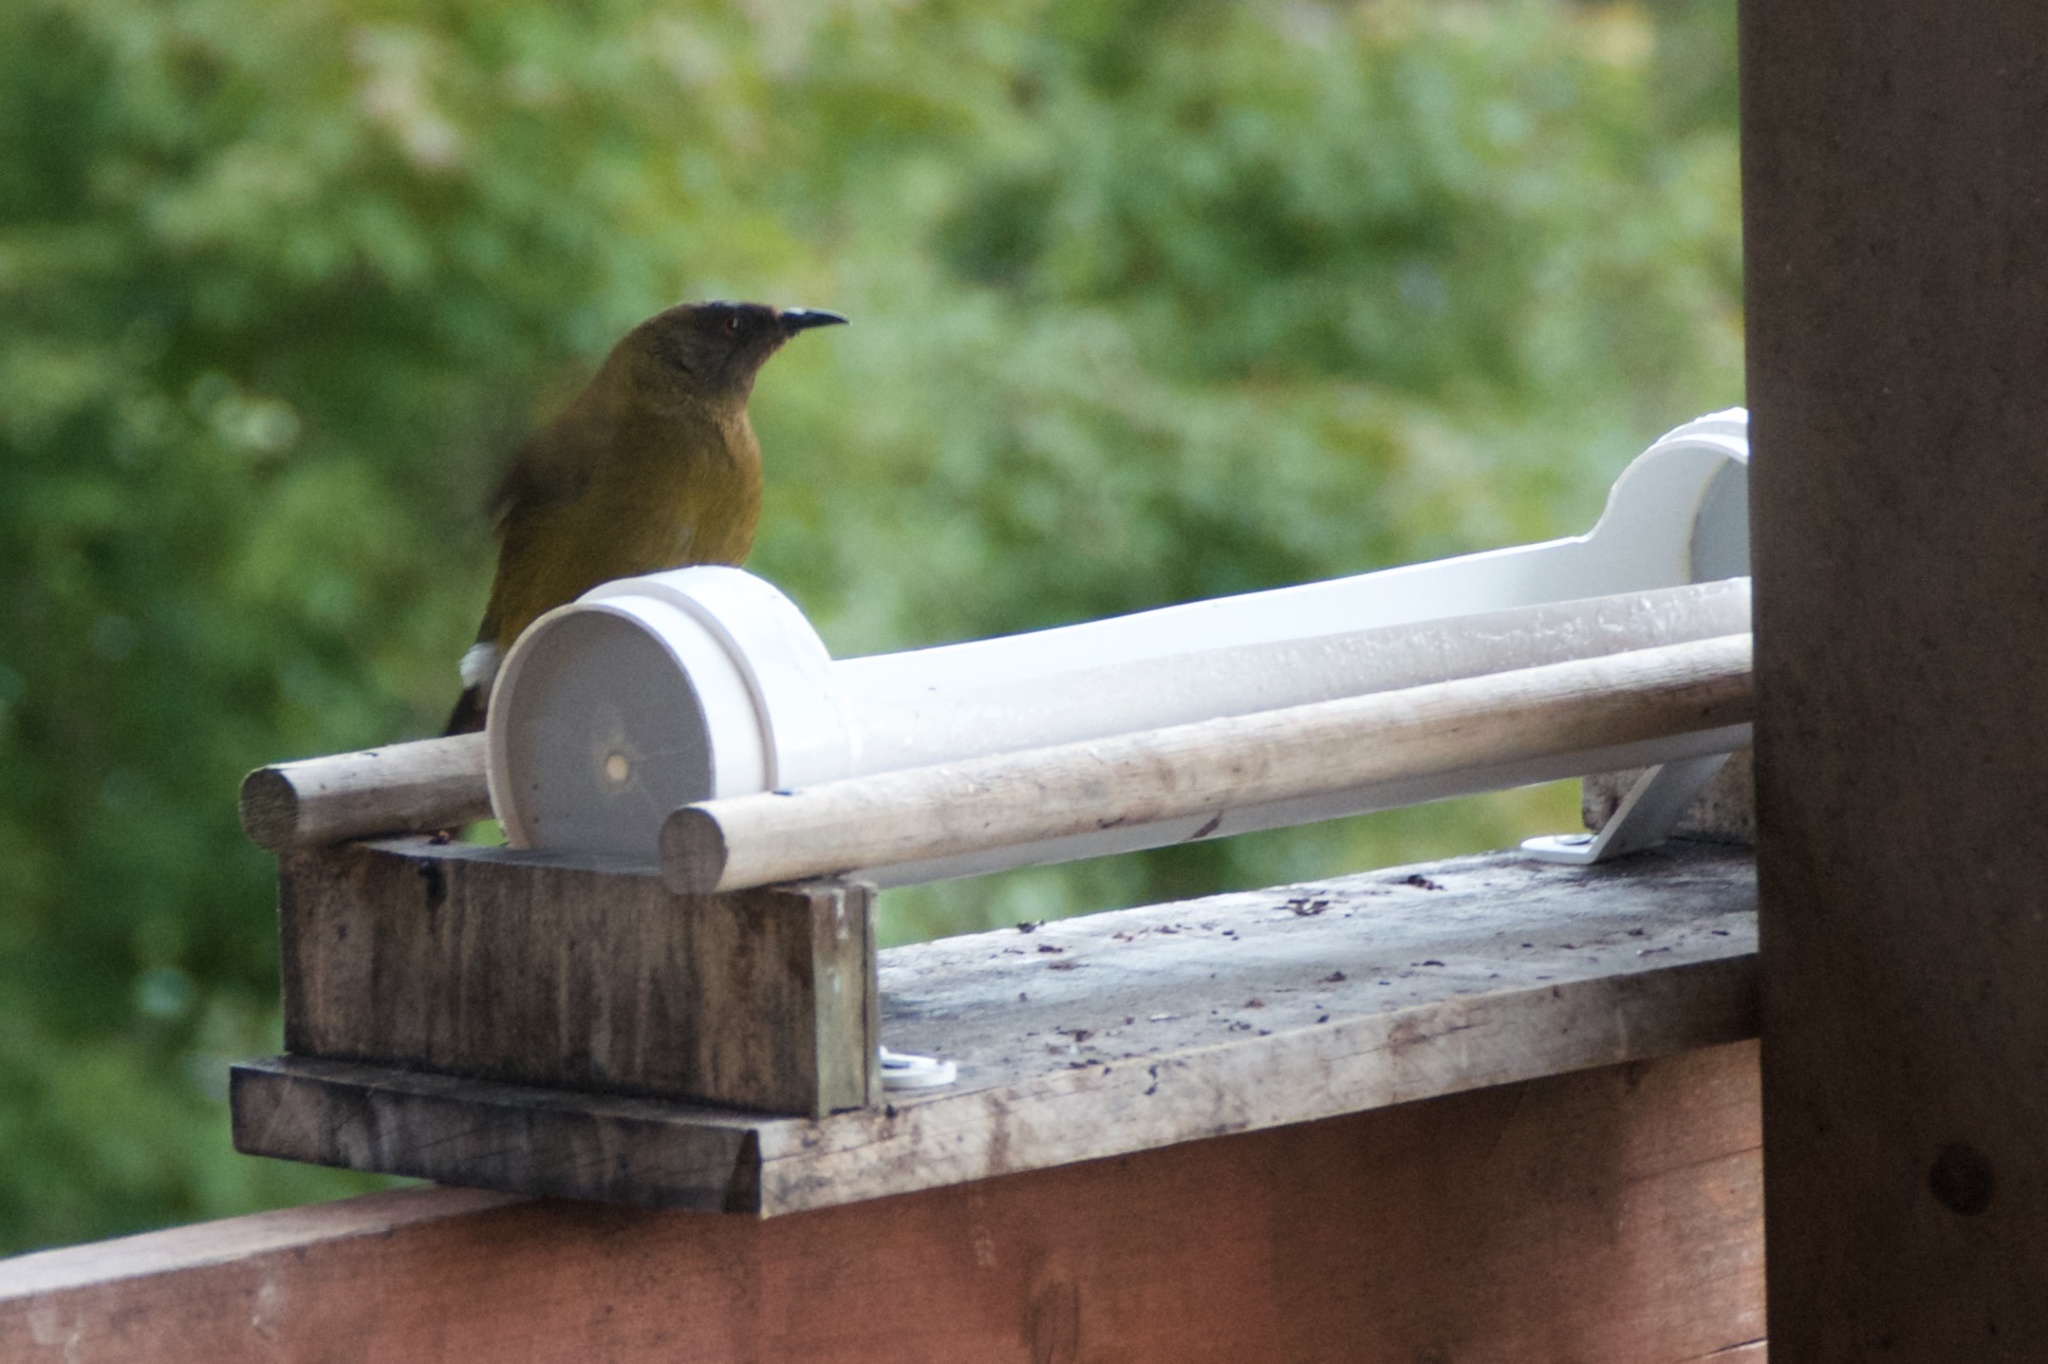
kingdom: Animalia
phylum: Chordata
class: Aves
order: Passeriformes
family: Meliphagidae
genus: Anthornis
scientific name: Anthornis melanura
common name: New zealand bellbird
